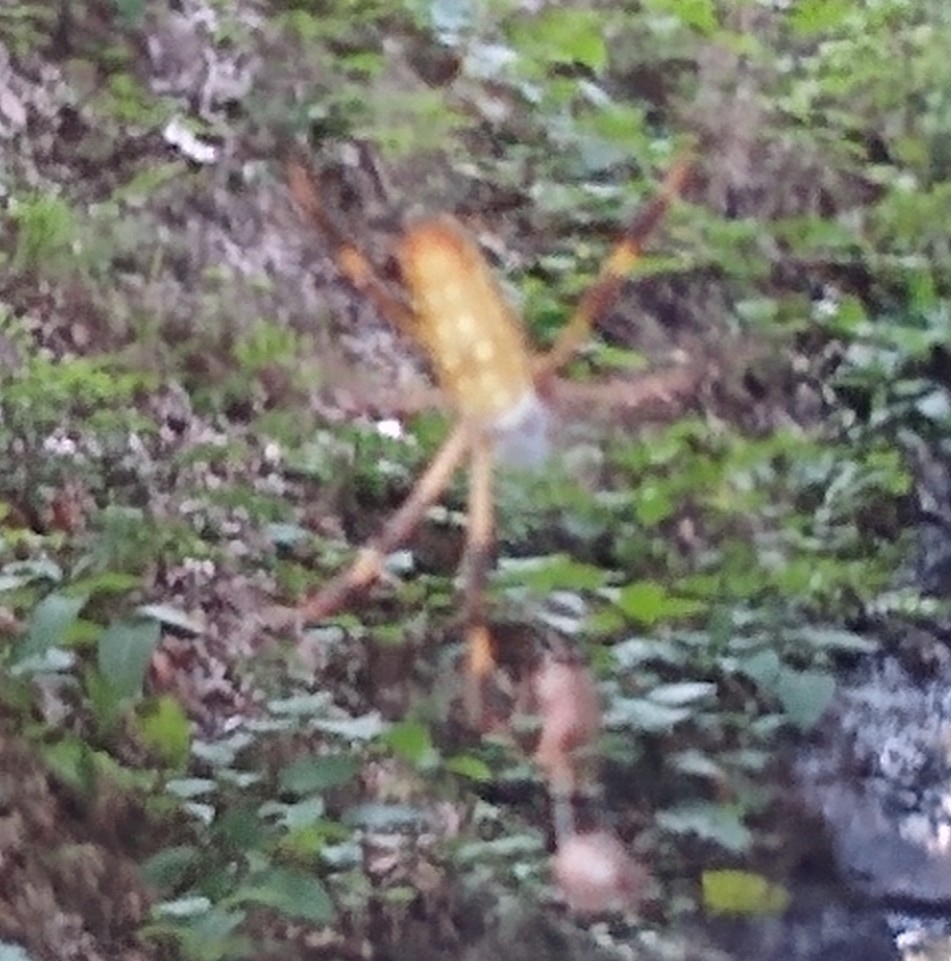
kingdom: Animalia
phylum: Arthropoda
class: Arachnida
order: Araneae
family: Araneidae
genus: Trichonephila
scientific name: Trichonephila clavipes
